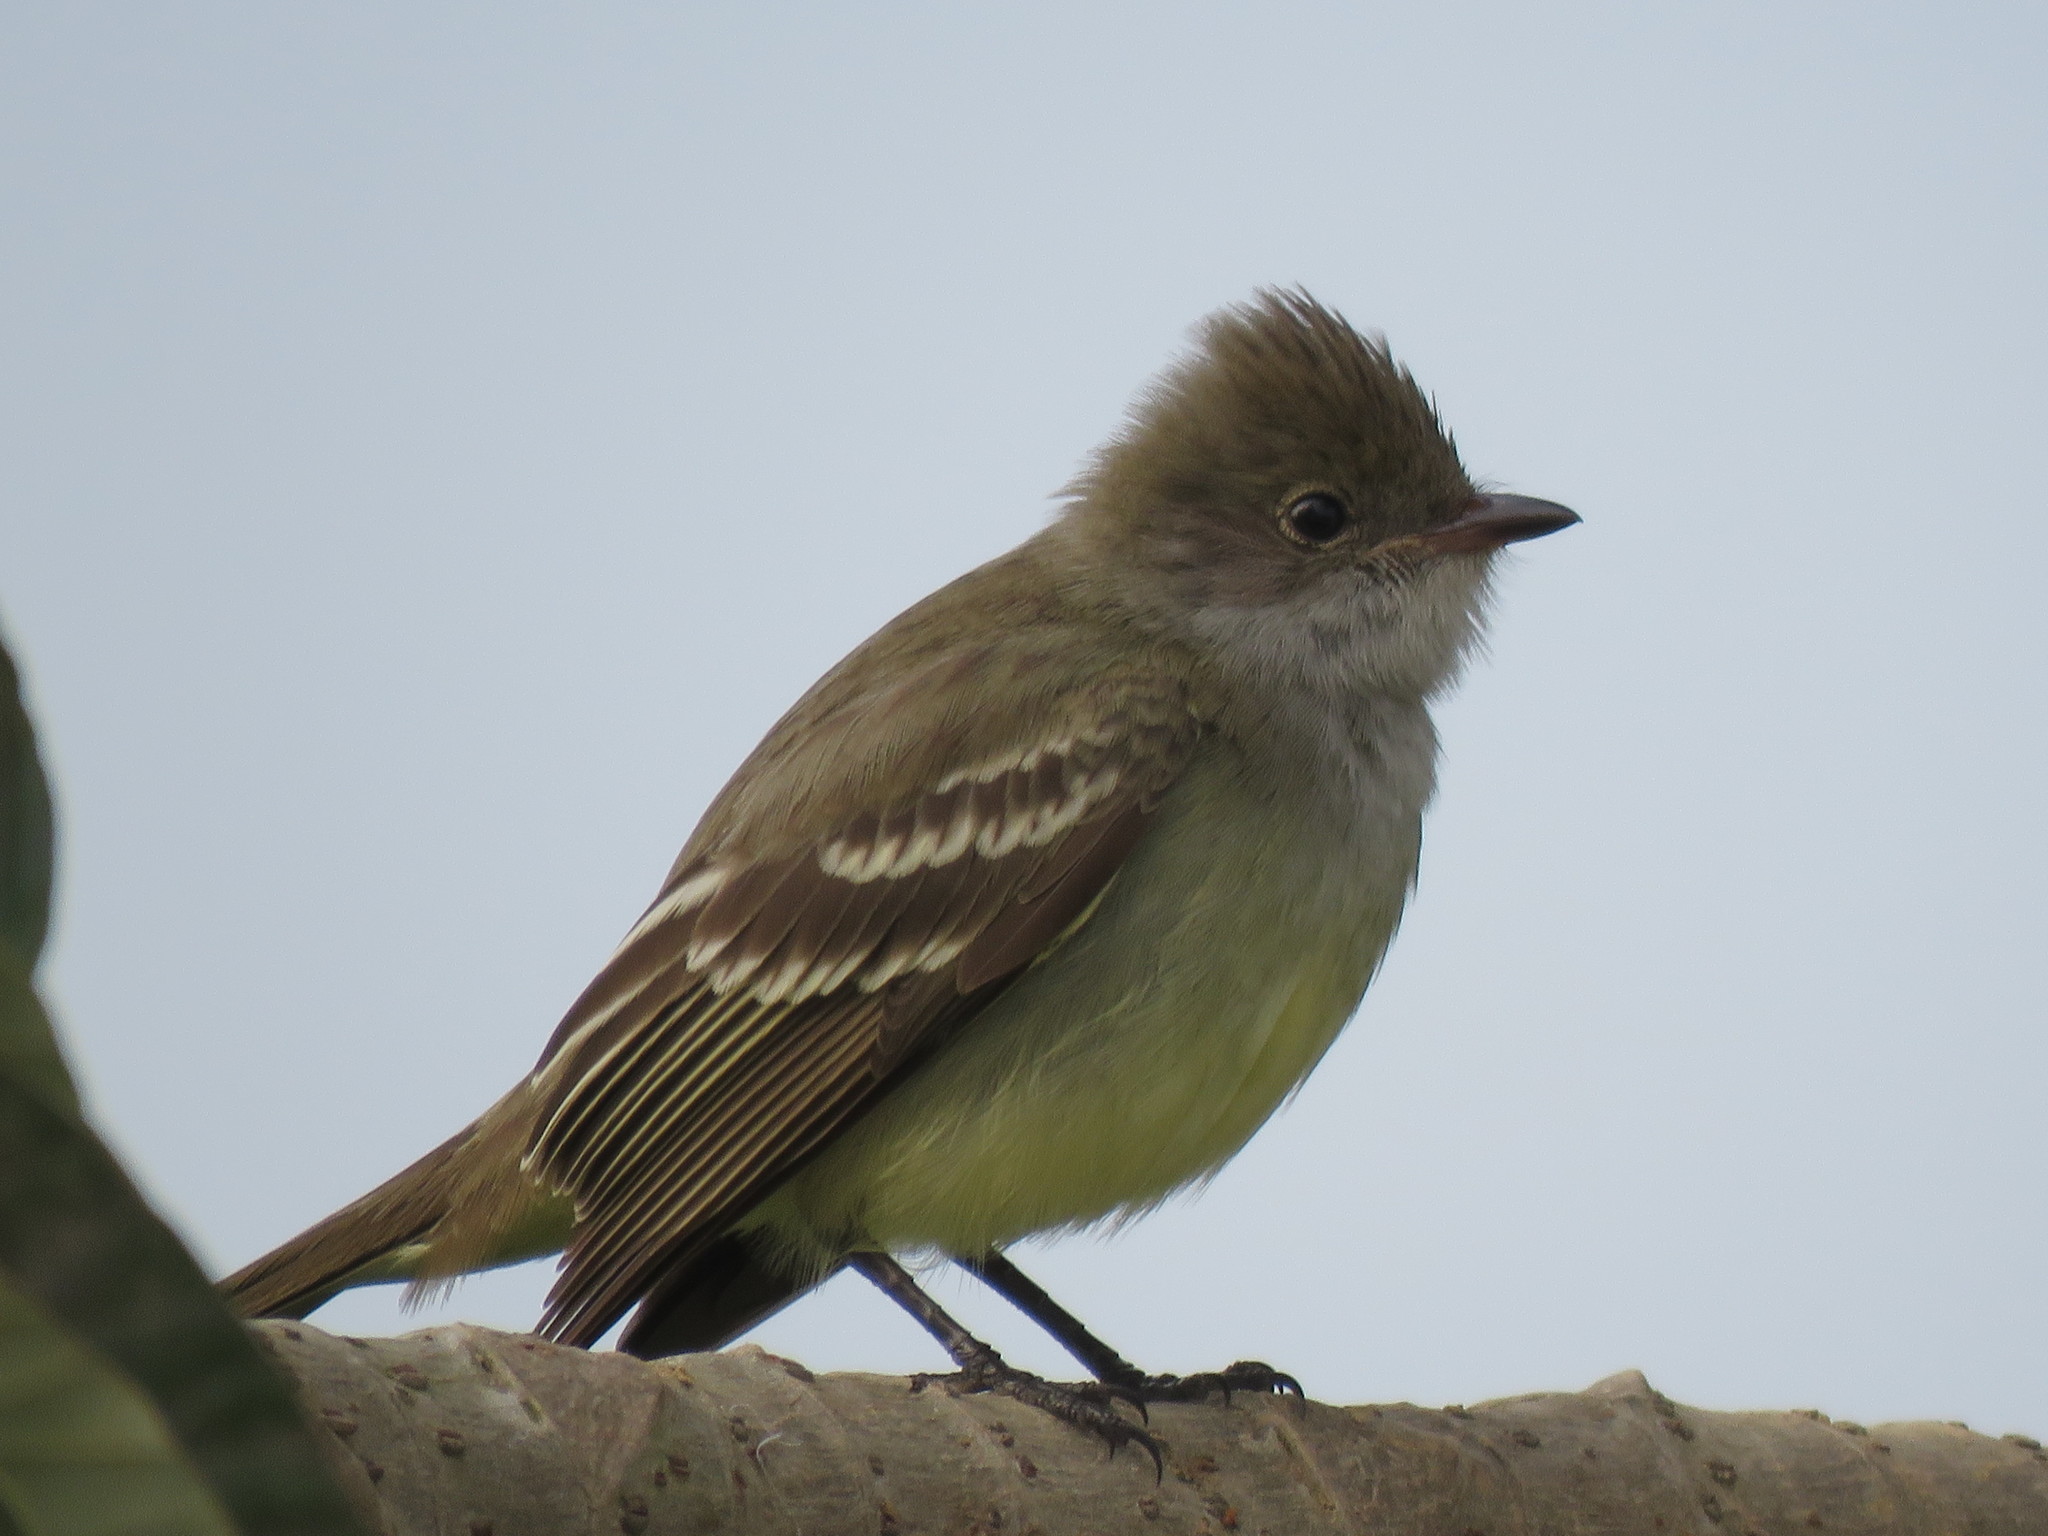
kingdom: Animalia
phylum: Chordata
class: Aves
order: Passeriformes
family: Tyrannidae
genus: Elaenia
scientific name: Elaenia spectabilis
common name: Large elaenia
